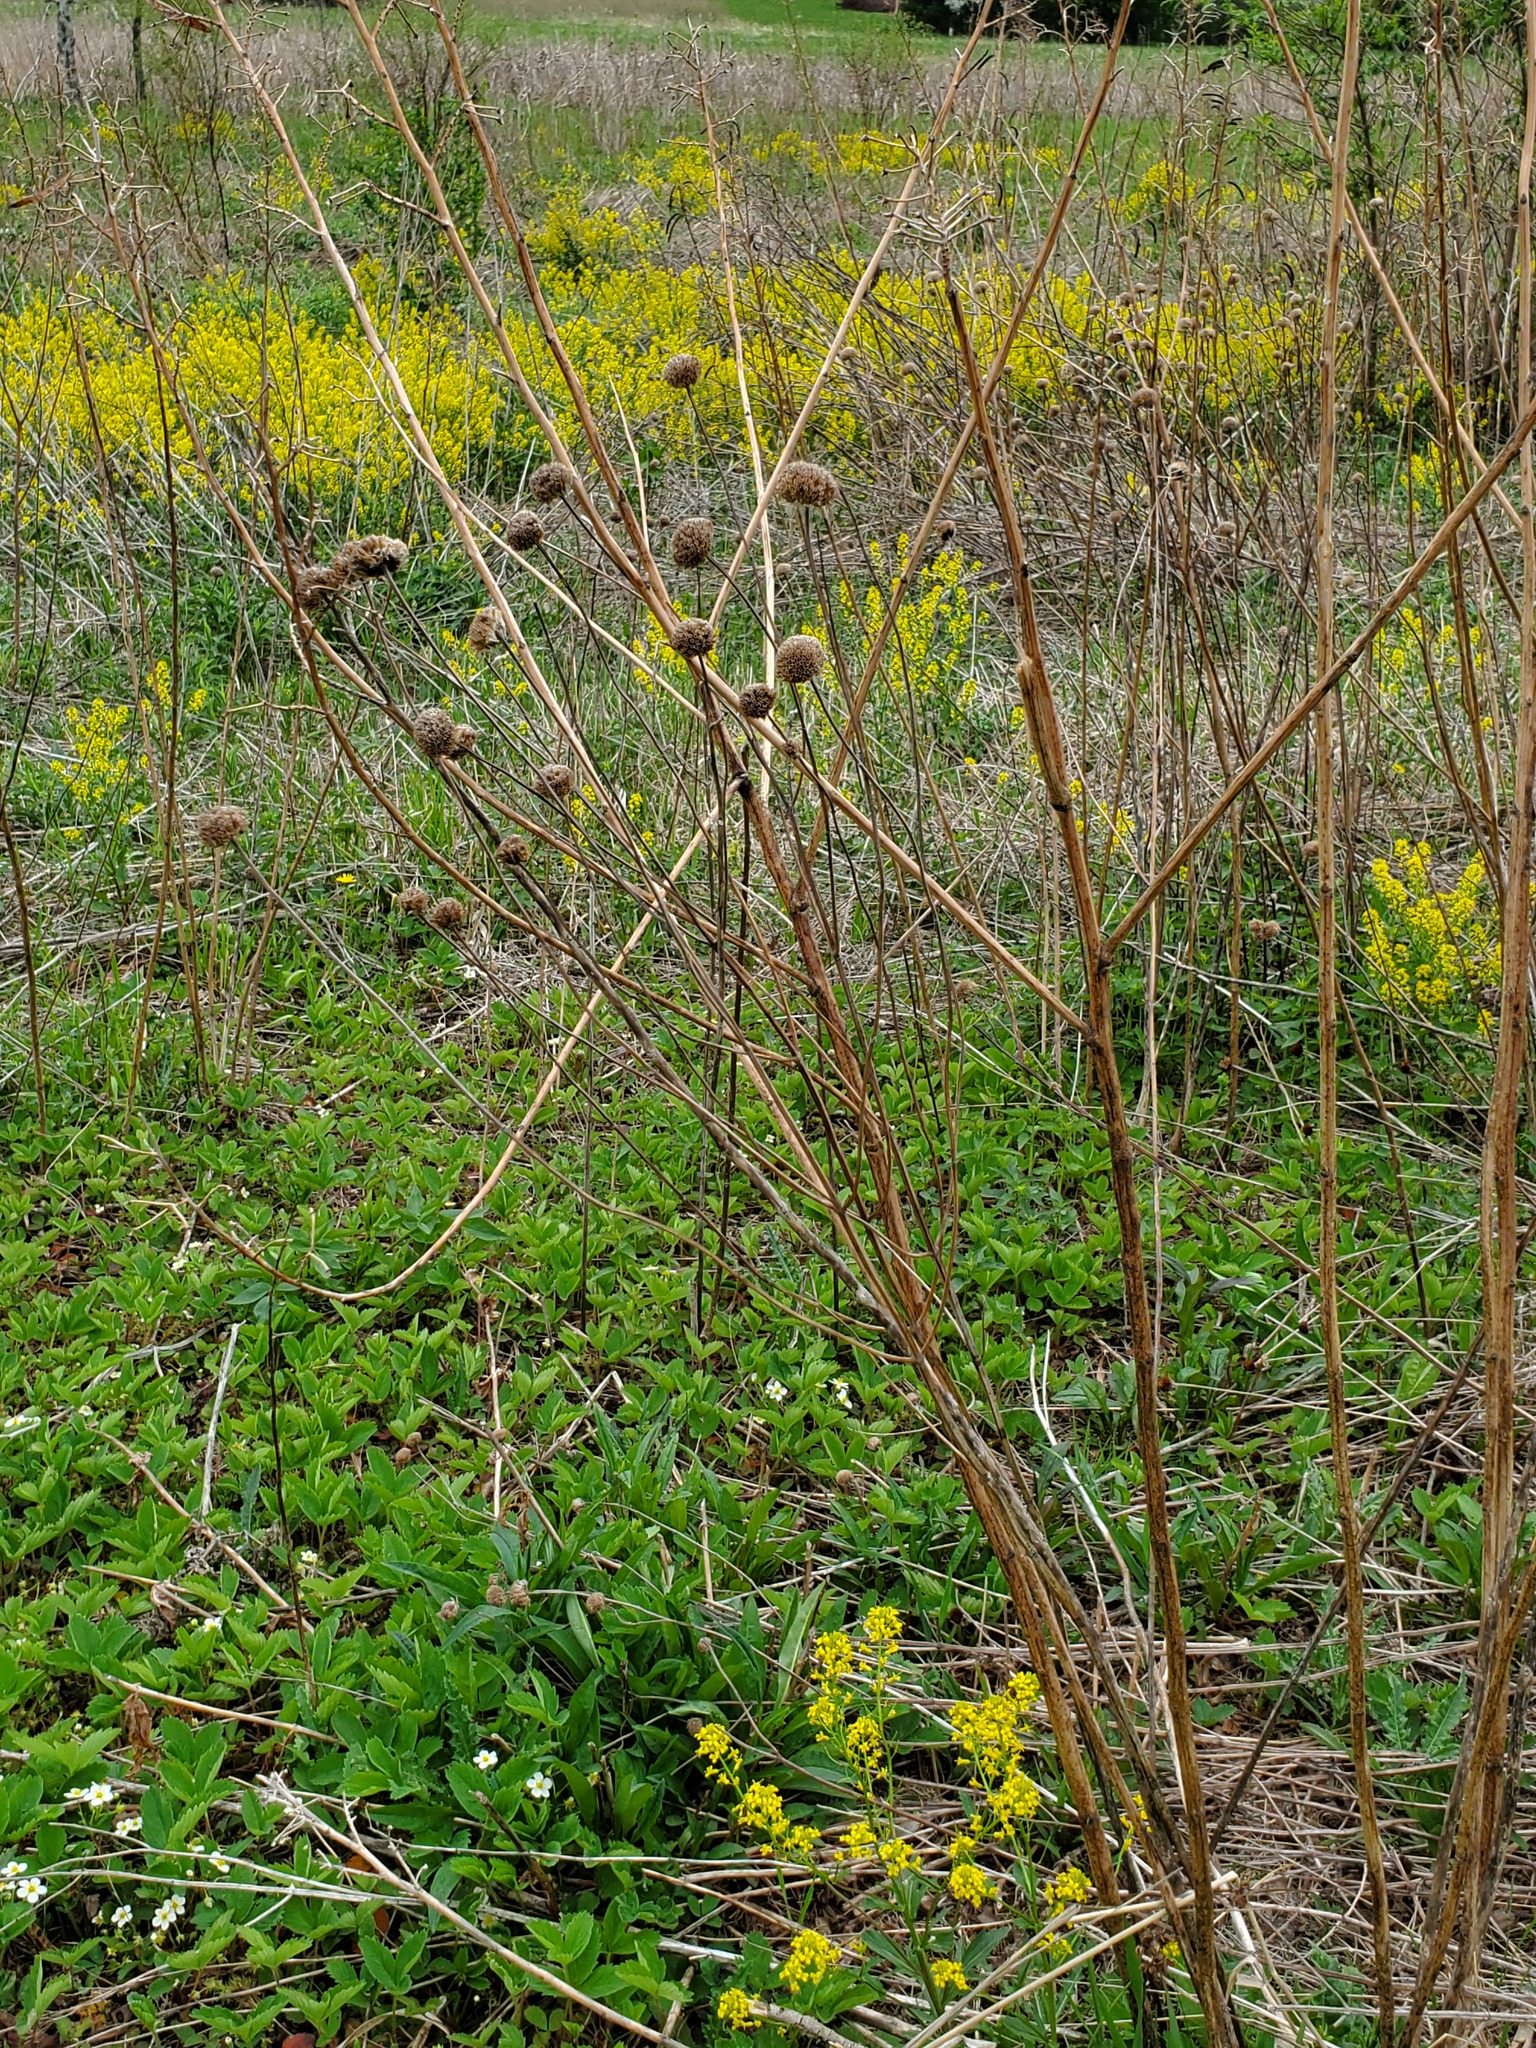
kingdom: Plantae
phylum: Tracheophyta
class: Magnoliopsida
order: Lamiales
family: Lamiaceae
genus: Monarda
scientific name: Monarda fistulosa
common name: Purple beebalm
